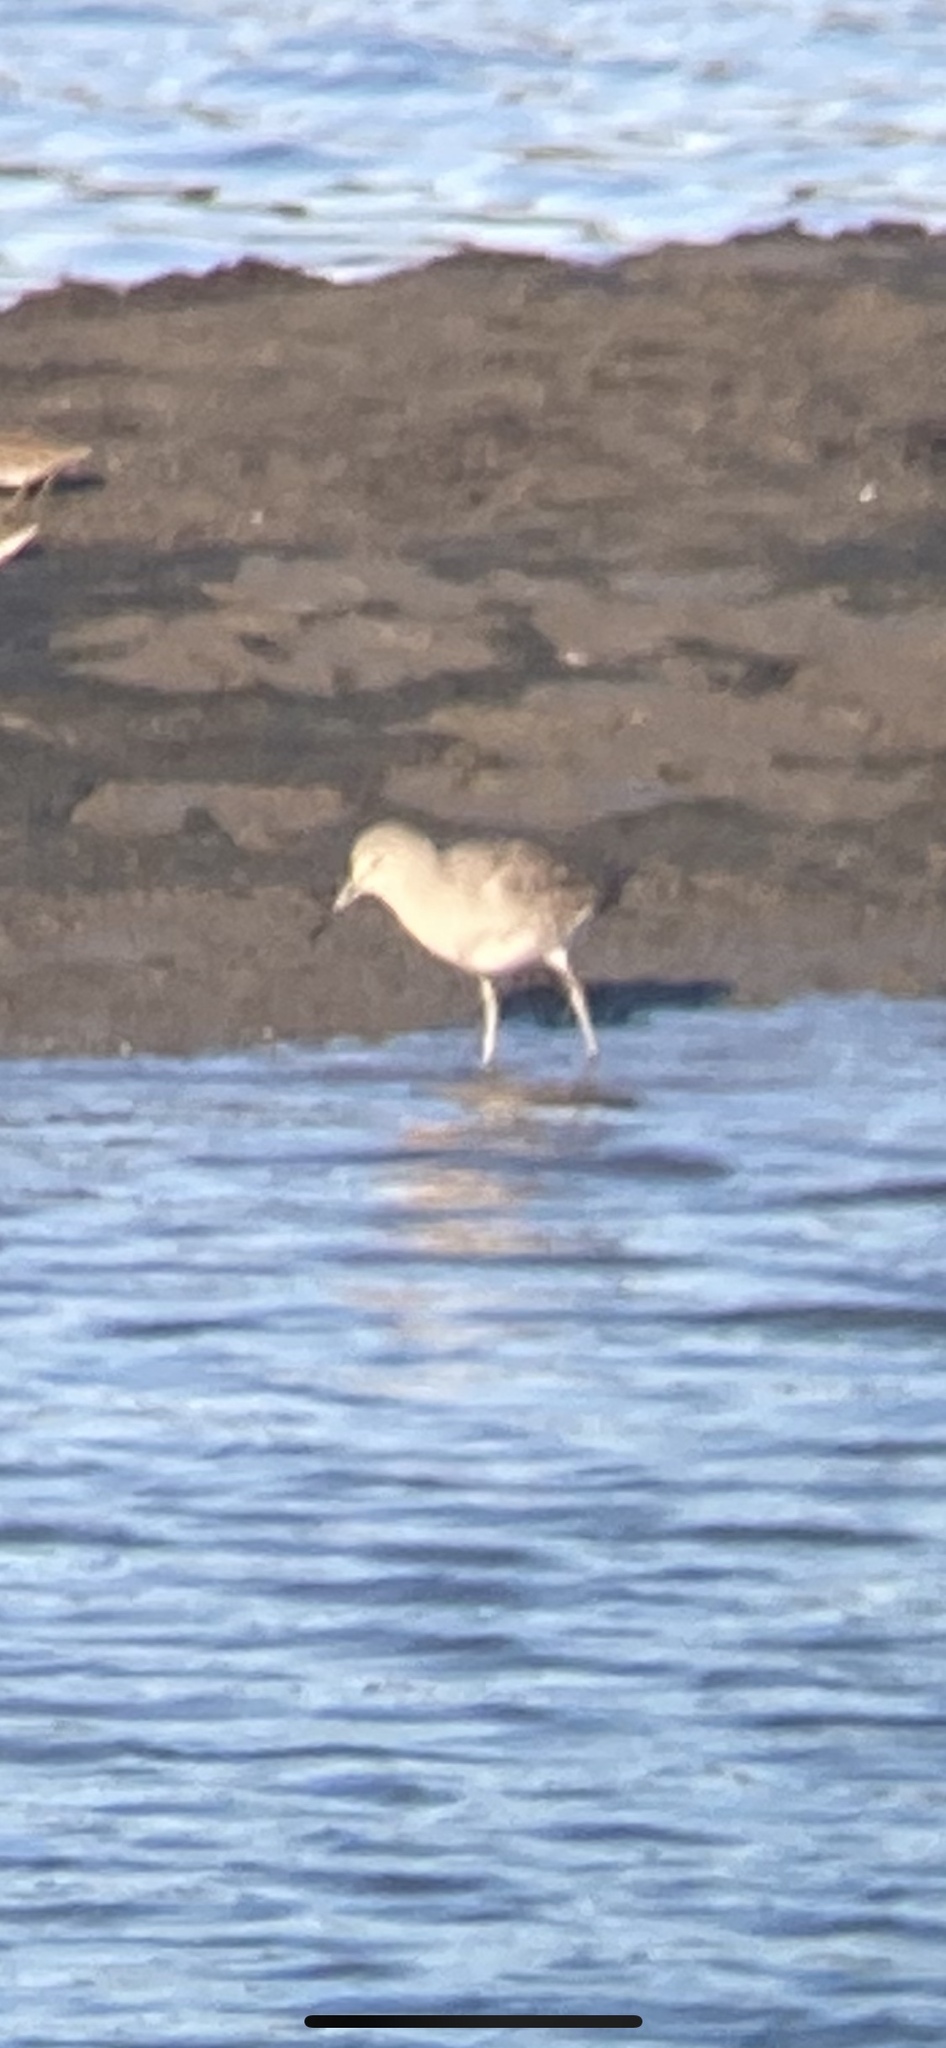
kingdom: Animalia
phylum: Chordata
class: Aves
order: Charadriiformes
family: Scolopacidae
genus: Tringa
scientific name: Tringa semipalmata
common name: Willet
